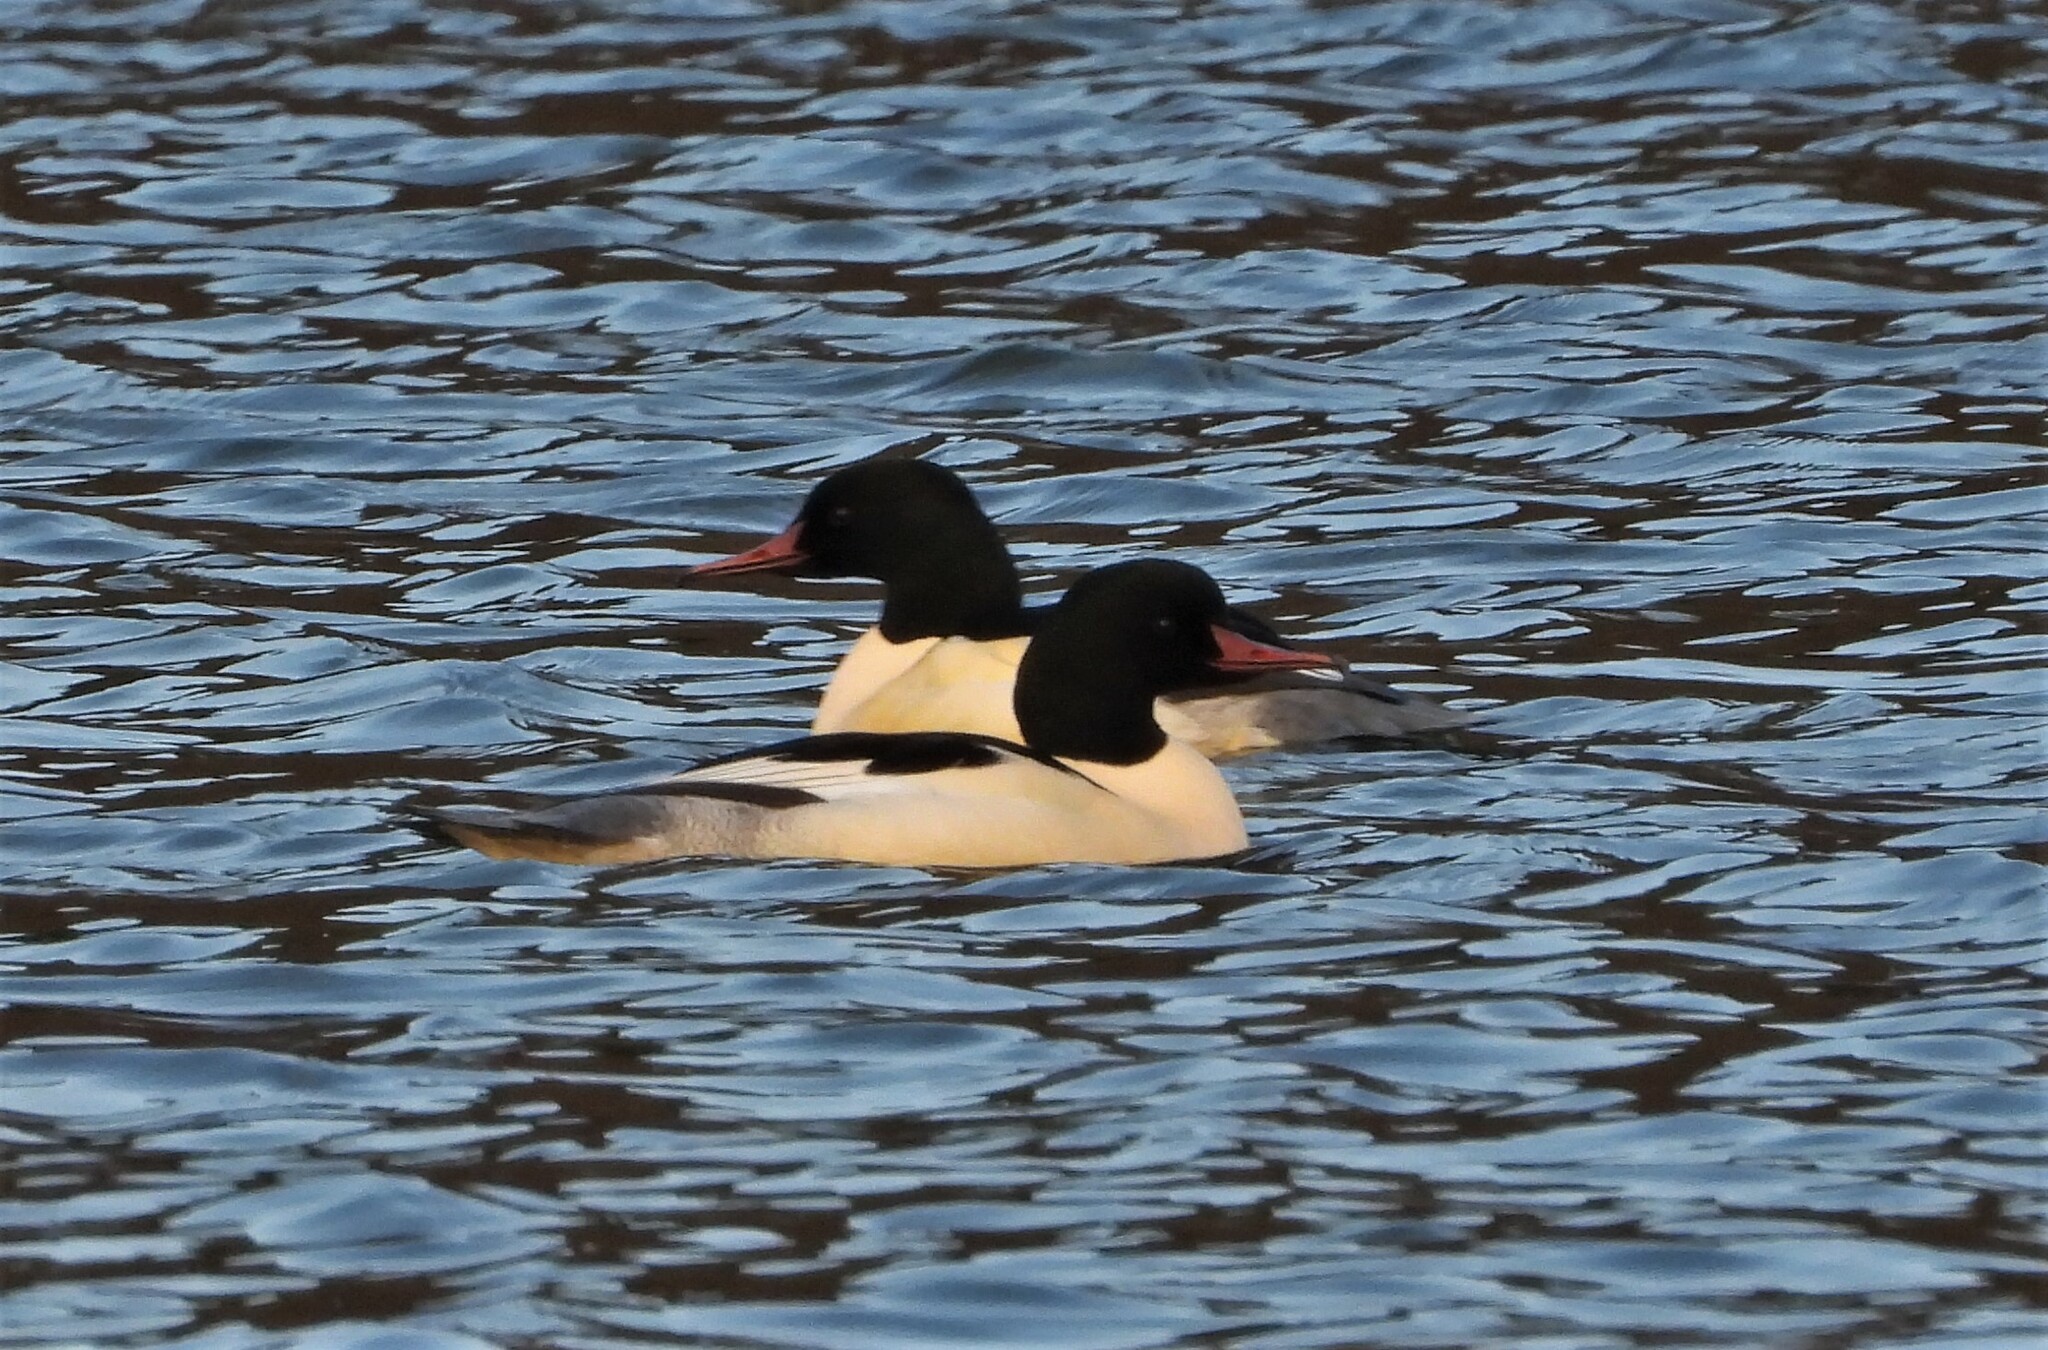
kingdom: Animalia
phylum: Chordata
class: Aves
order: Anseriformes
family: Anatidae
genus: Mergus
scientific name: Mergus merganser
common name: Common merganser
